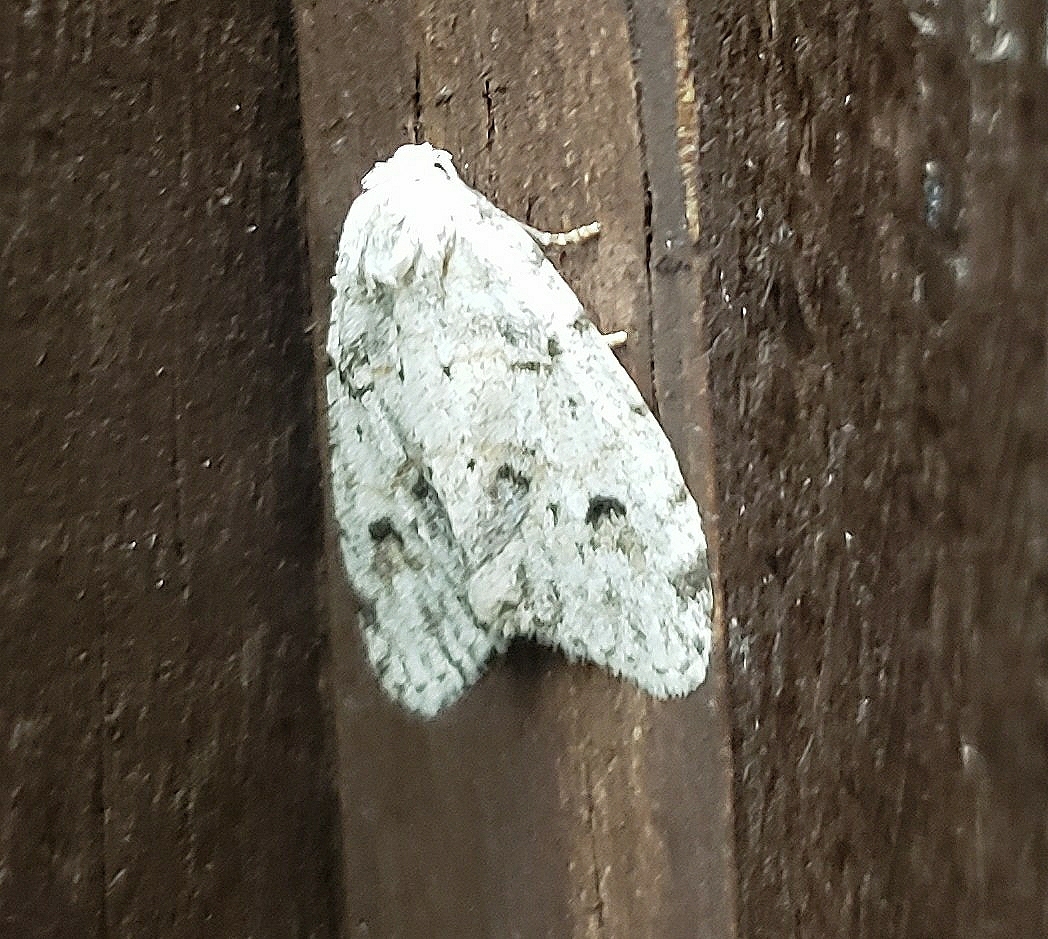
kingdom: Animalia
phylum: Arthropoda
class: Insecta
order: Lepidoptera
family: Erebidae
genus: Clemensia
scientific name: Clemensia albata
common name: Little white lichen moth
